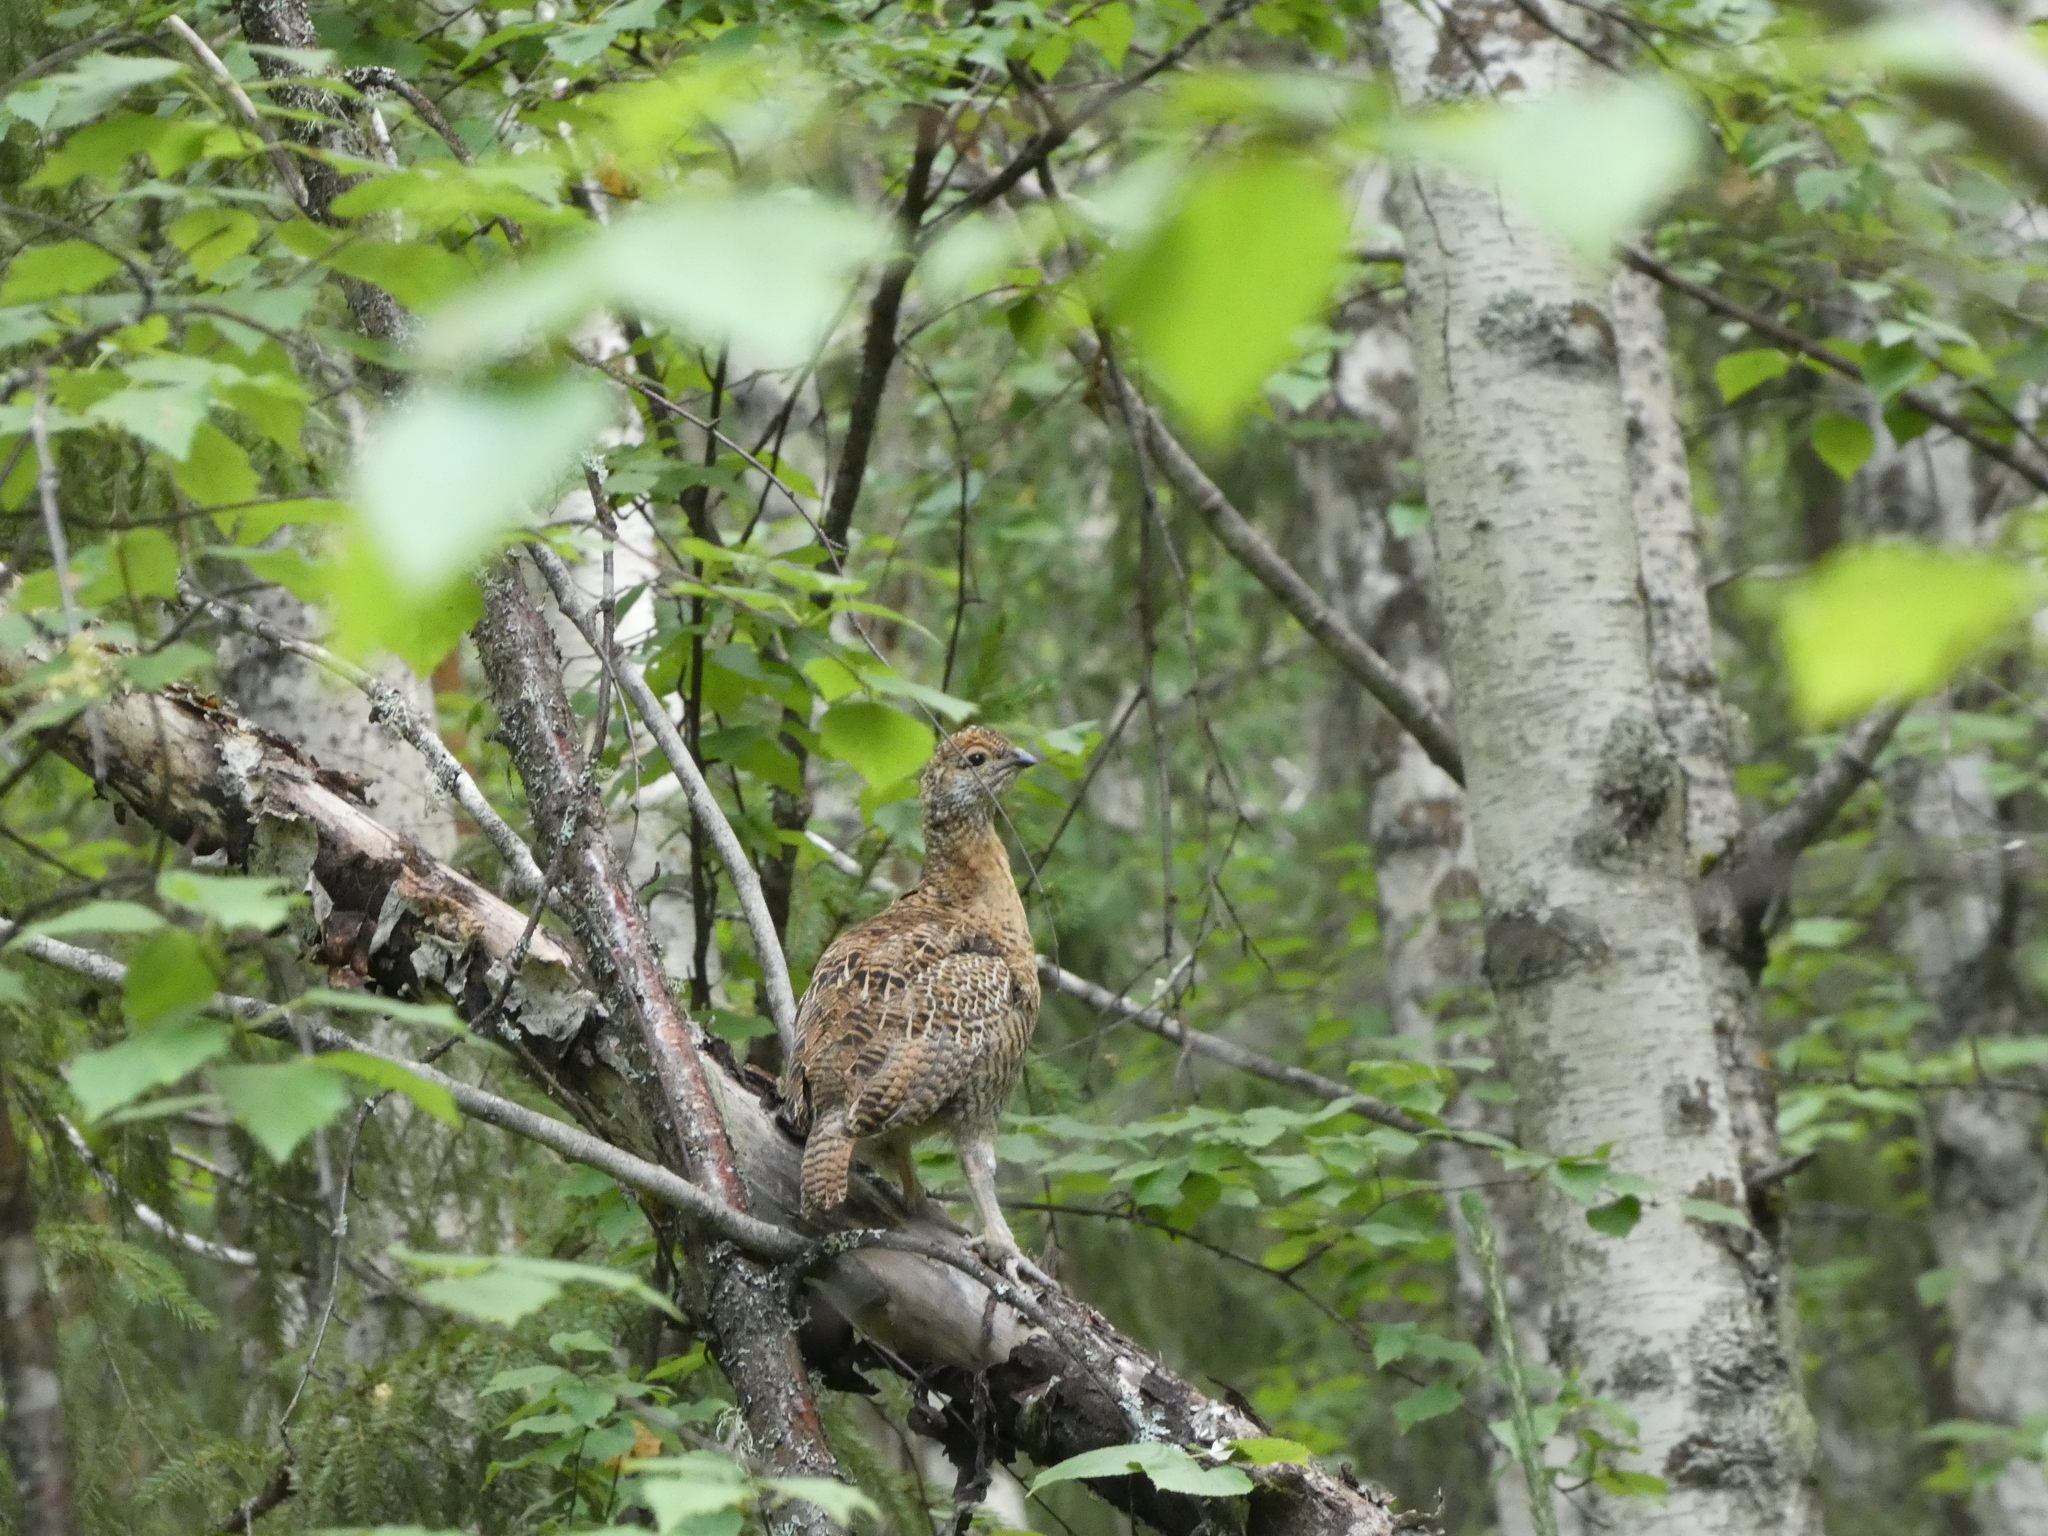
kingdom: Animalia
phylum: Chordata
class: Aves
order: Galliformes
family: Phasianidae
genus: Tetrao
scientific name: Tetrao urogallus
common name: Western capercaillie
